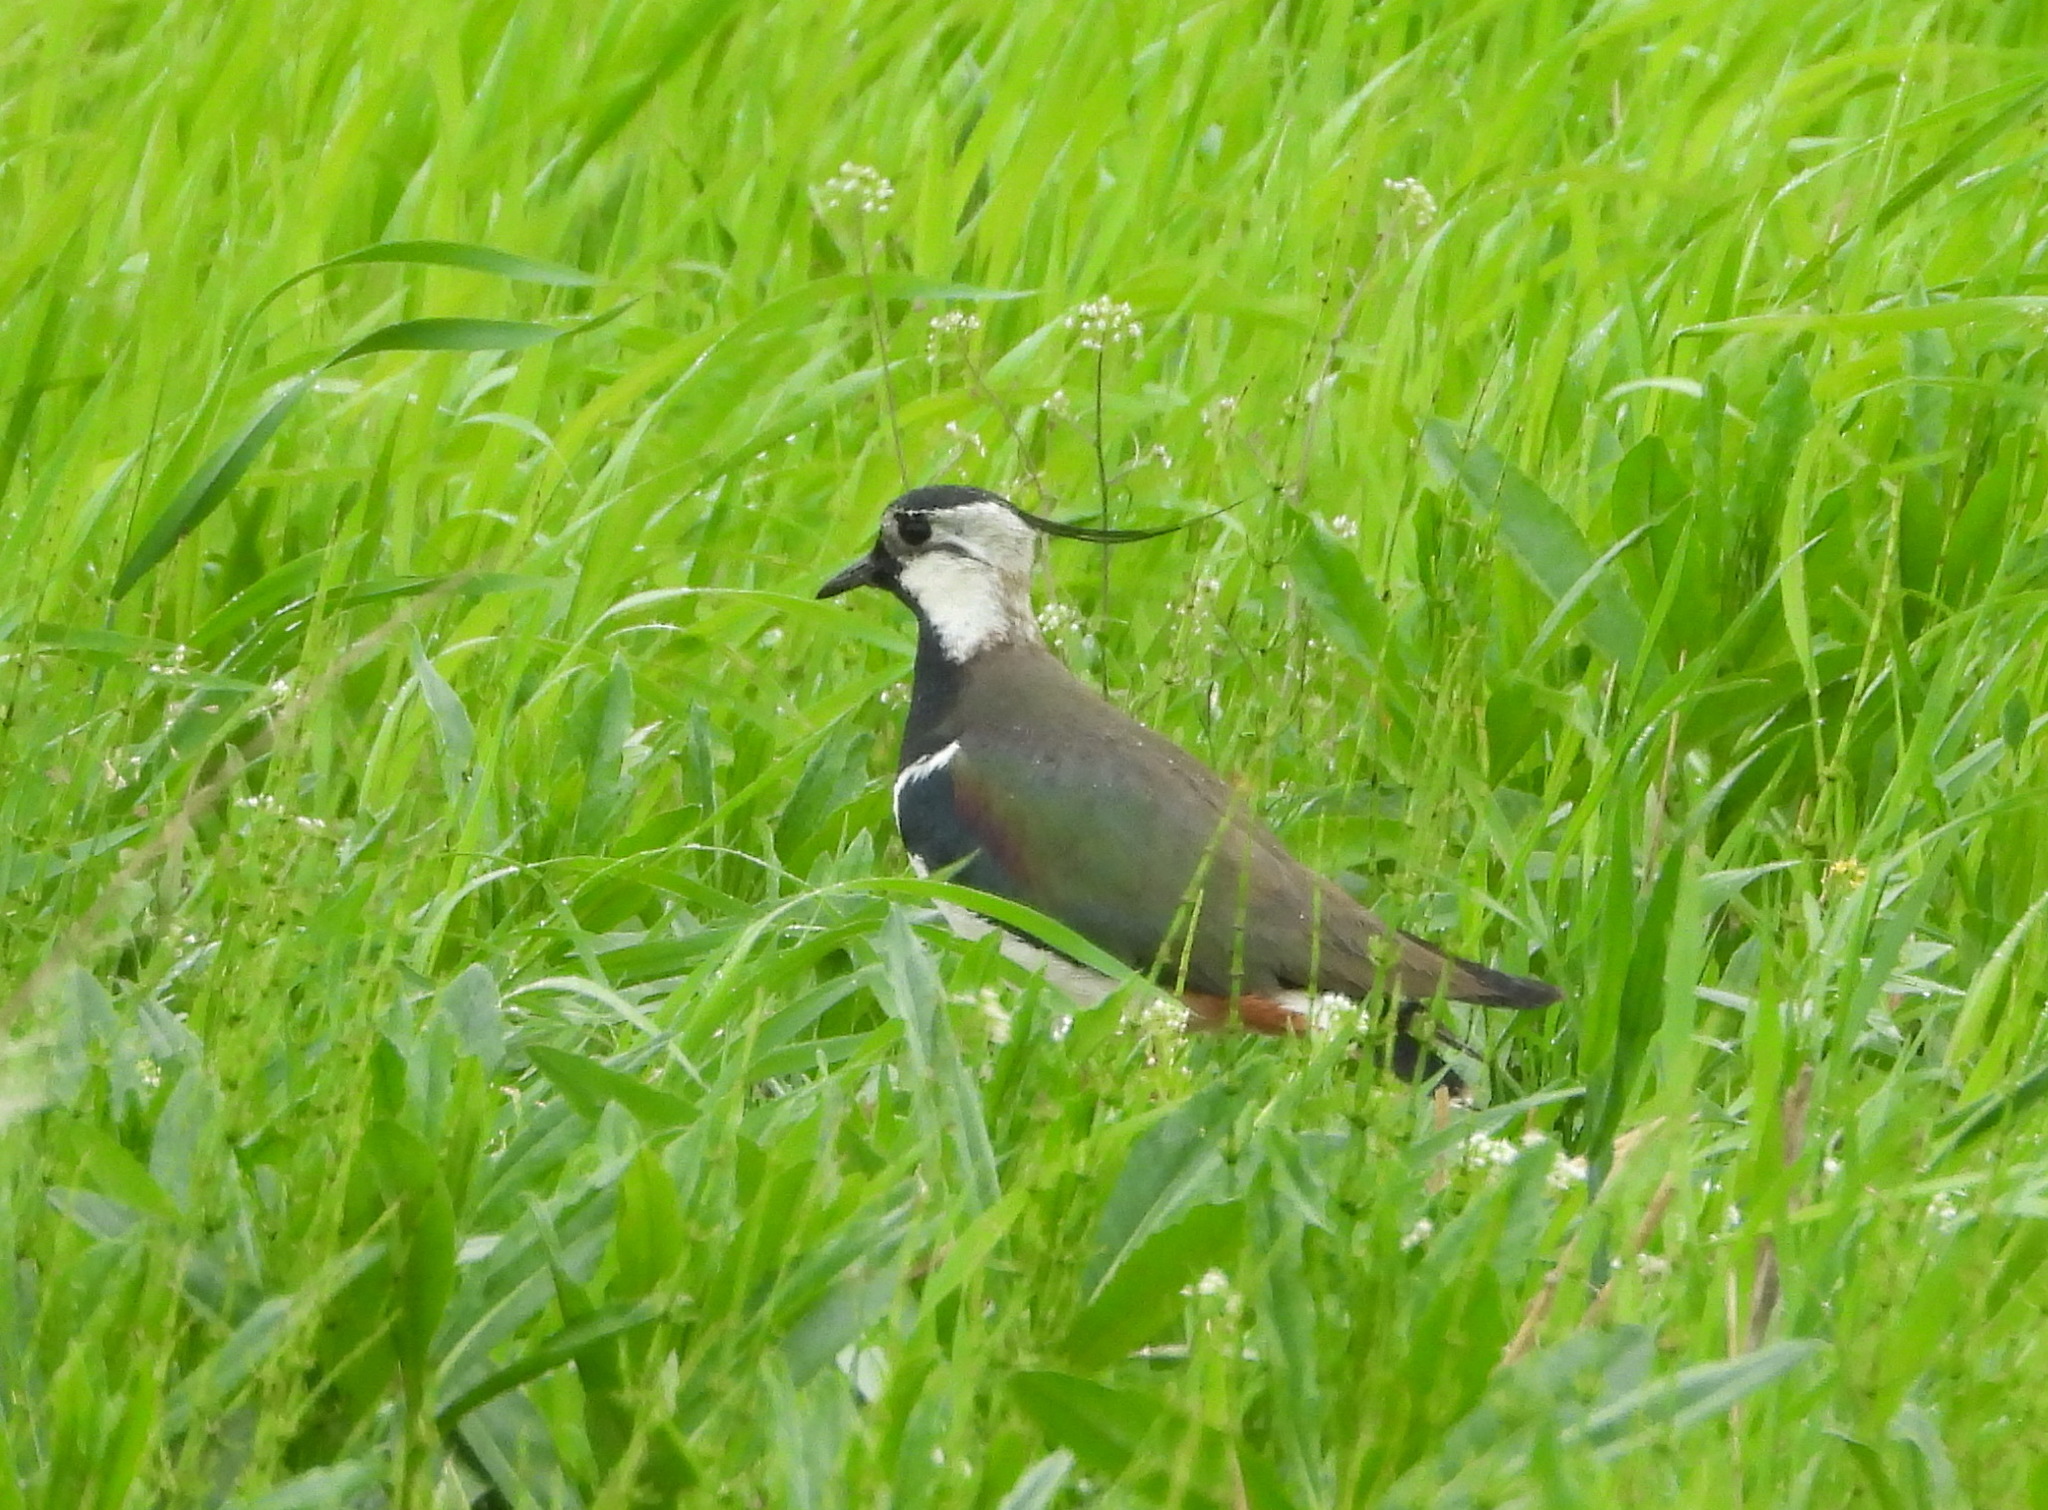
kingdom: Animalia
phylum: Chordata
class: Aves
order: Charadriiformes
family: Charadriidae
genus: Vanellus
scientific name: Vanellus vanellus
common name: Northern lapwing
